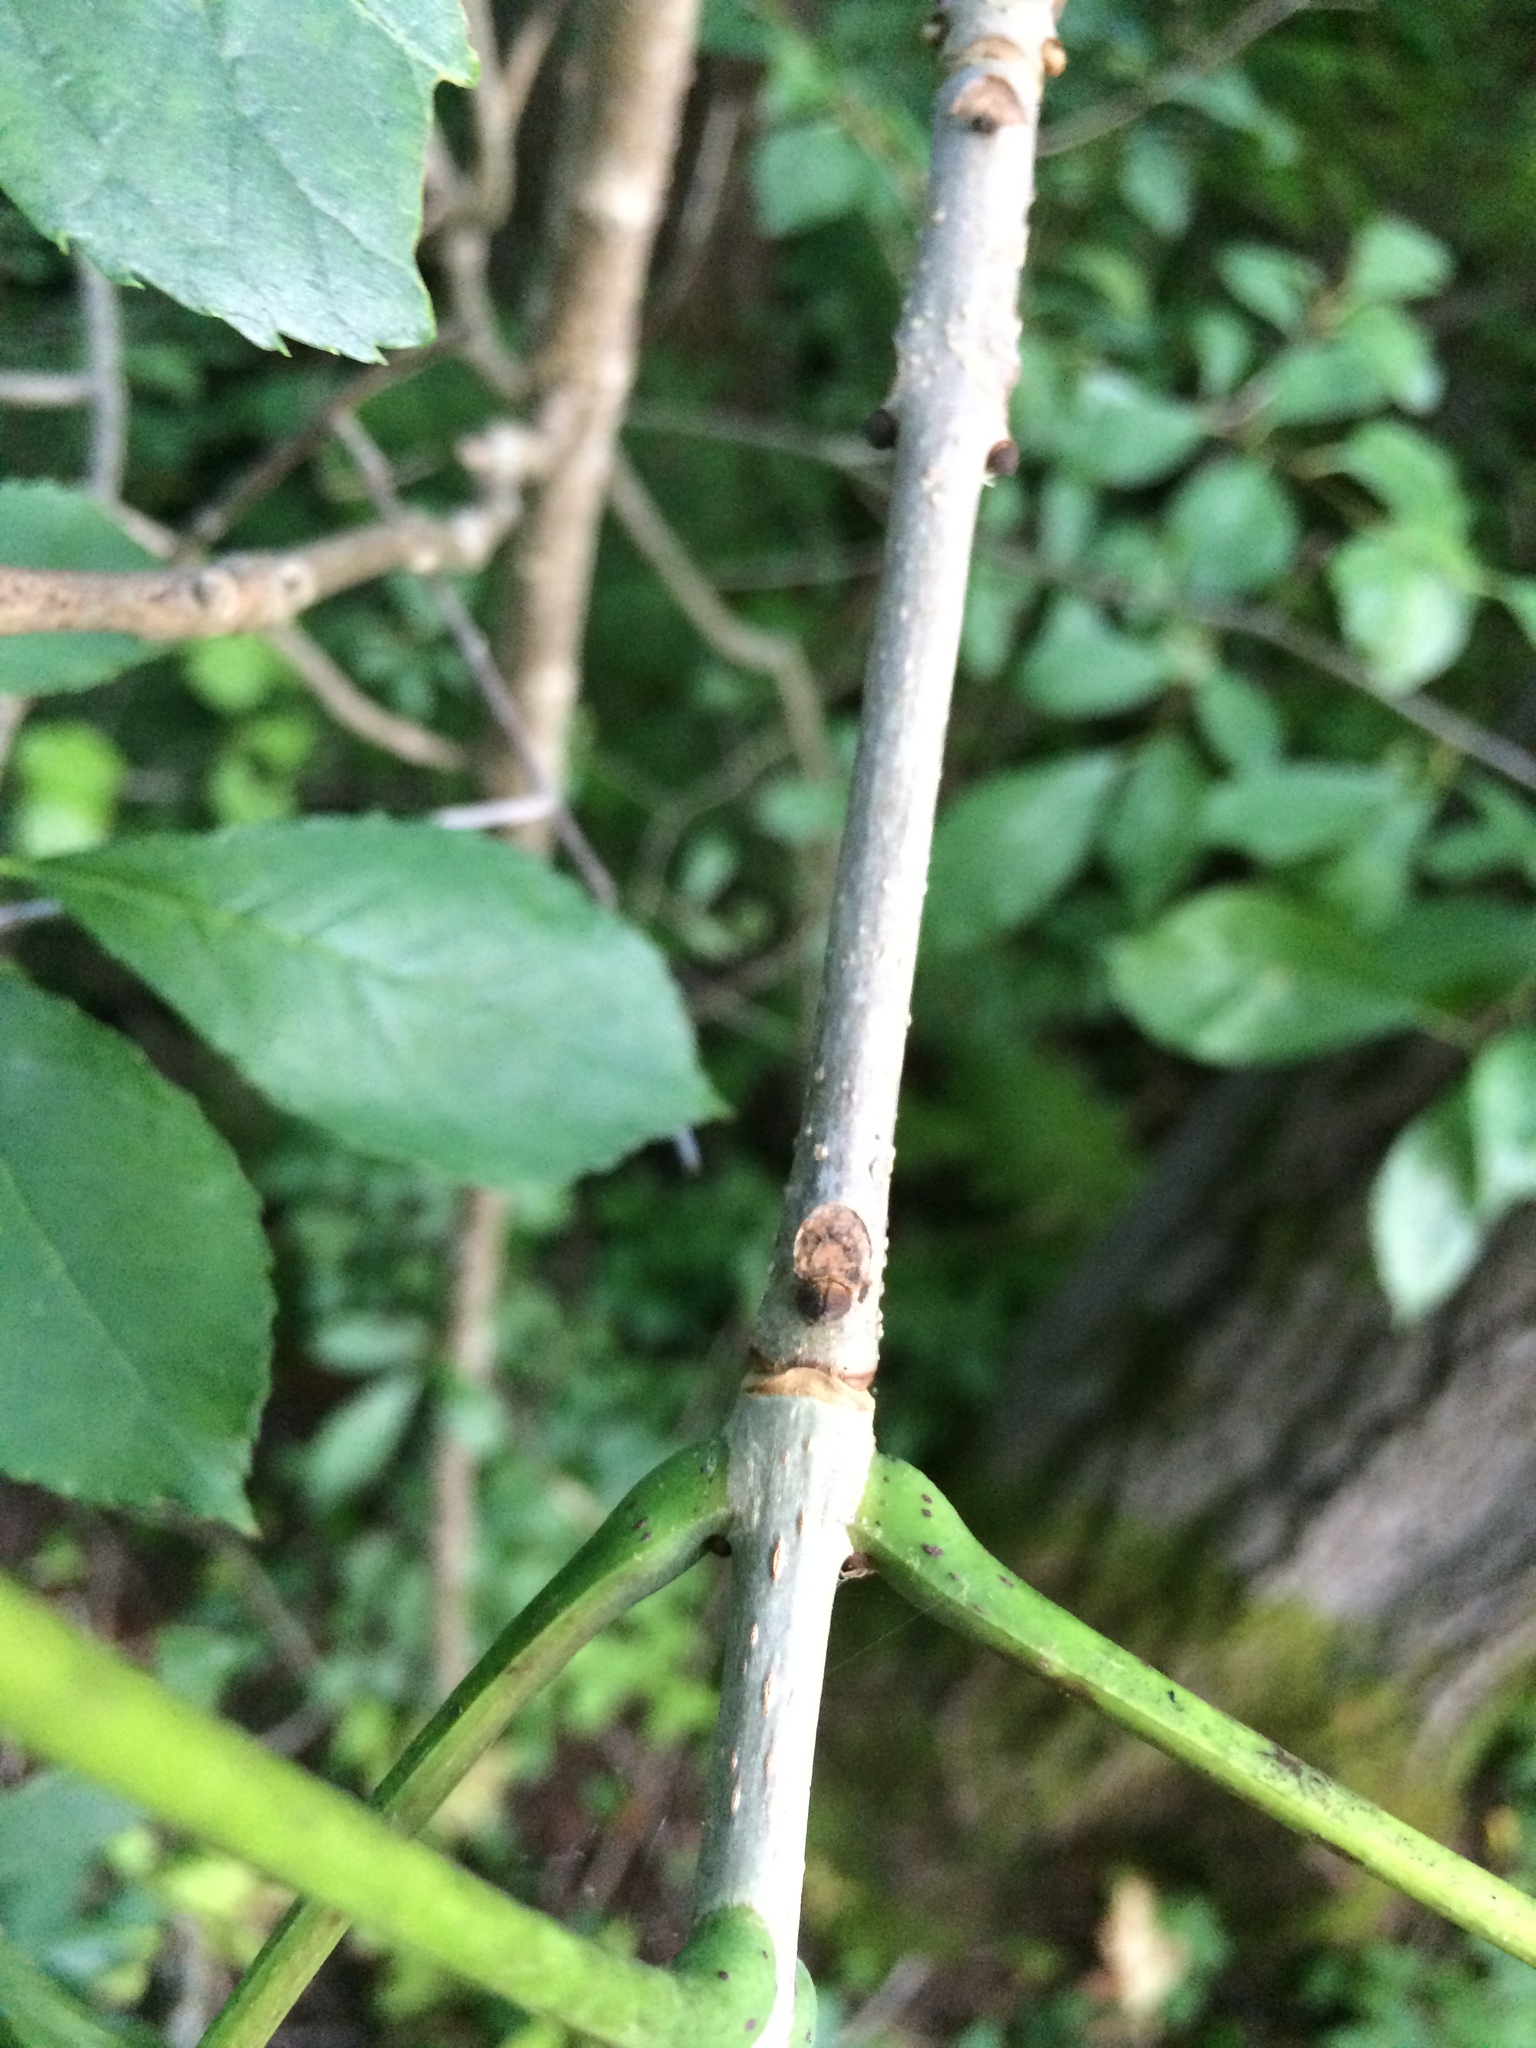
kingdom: Plantae
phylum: Tracheophyta
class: Magnoliopsida
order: Lamiales
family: Oleaceae
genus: Fraxinus
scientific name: Fraxinus nigra
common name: Black ash
